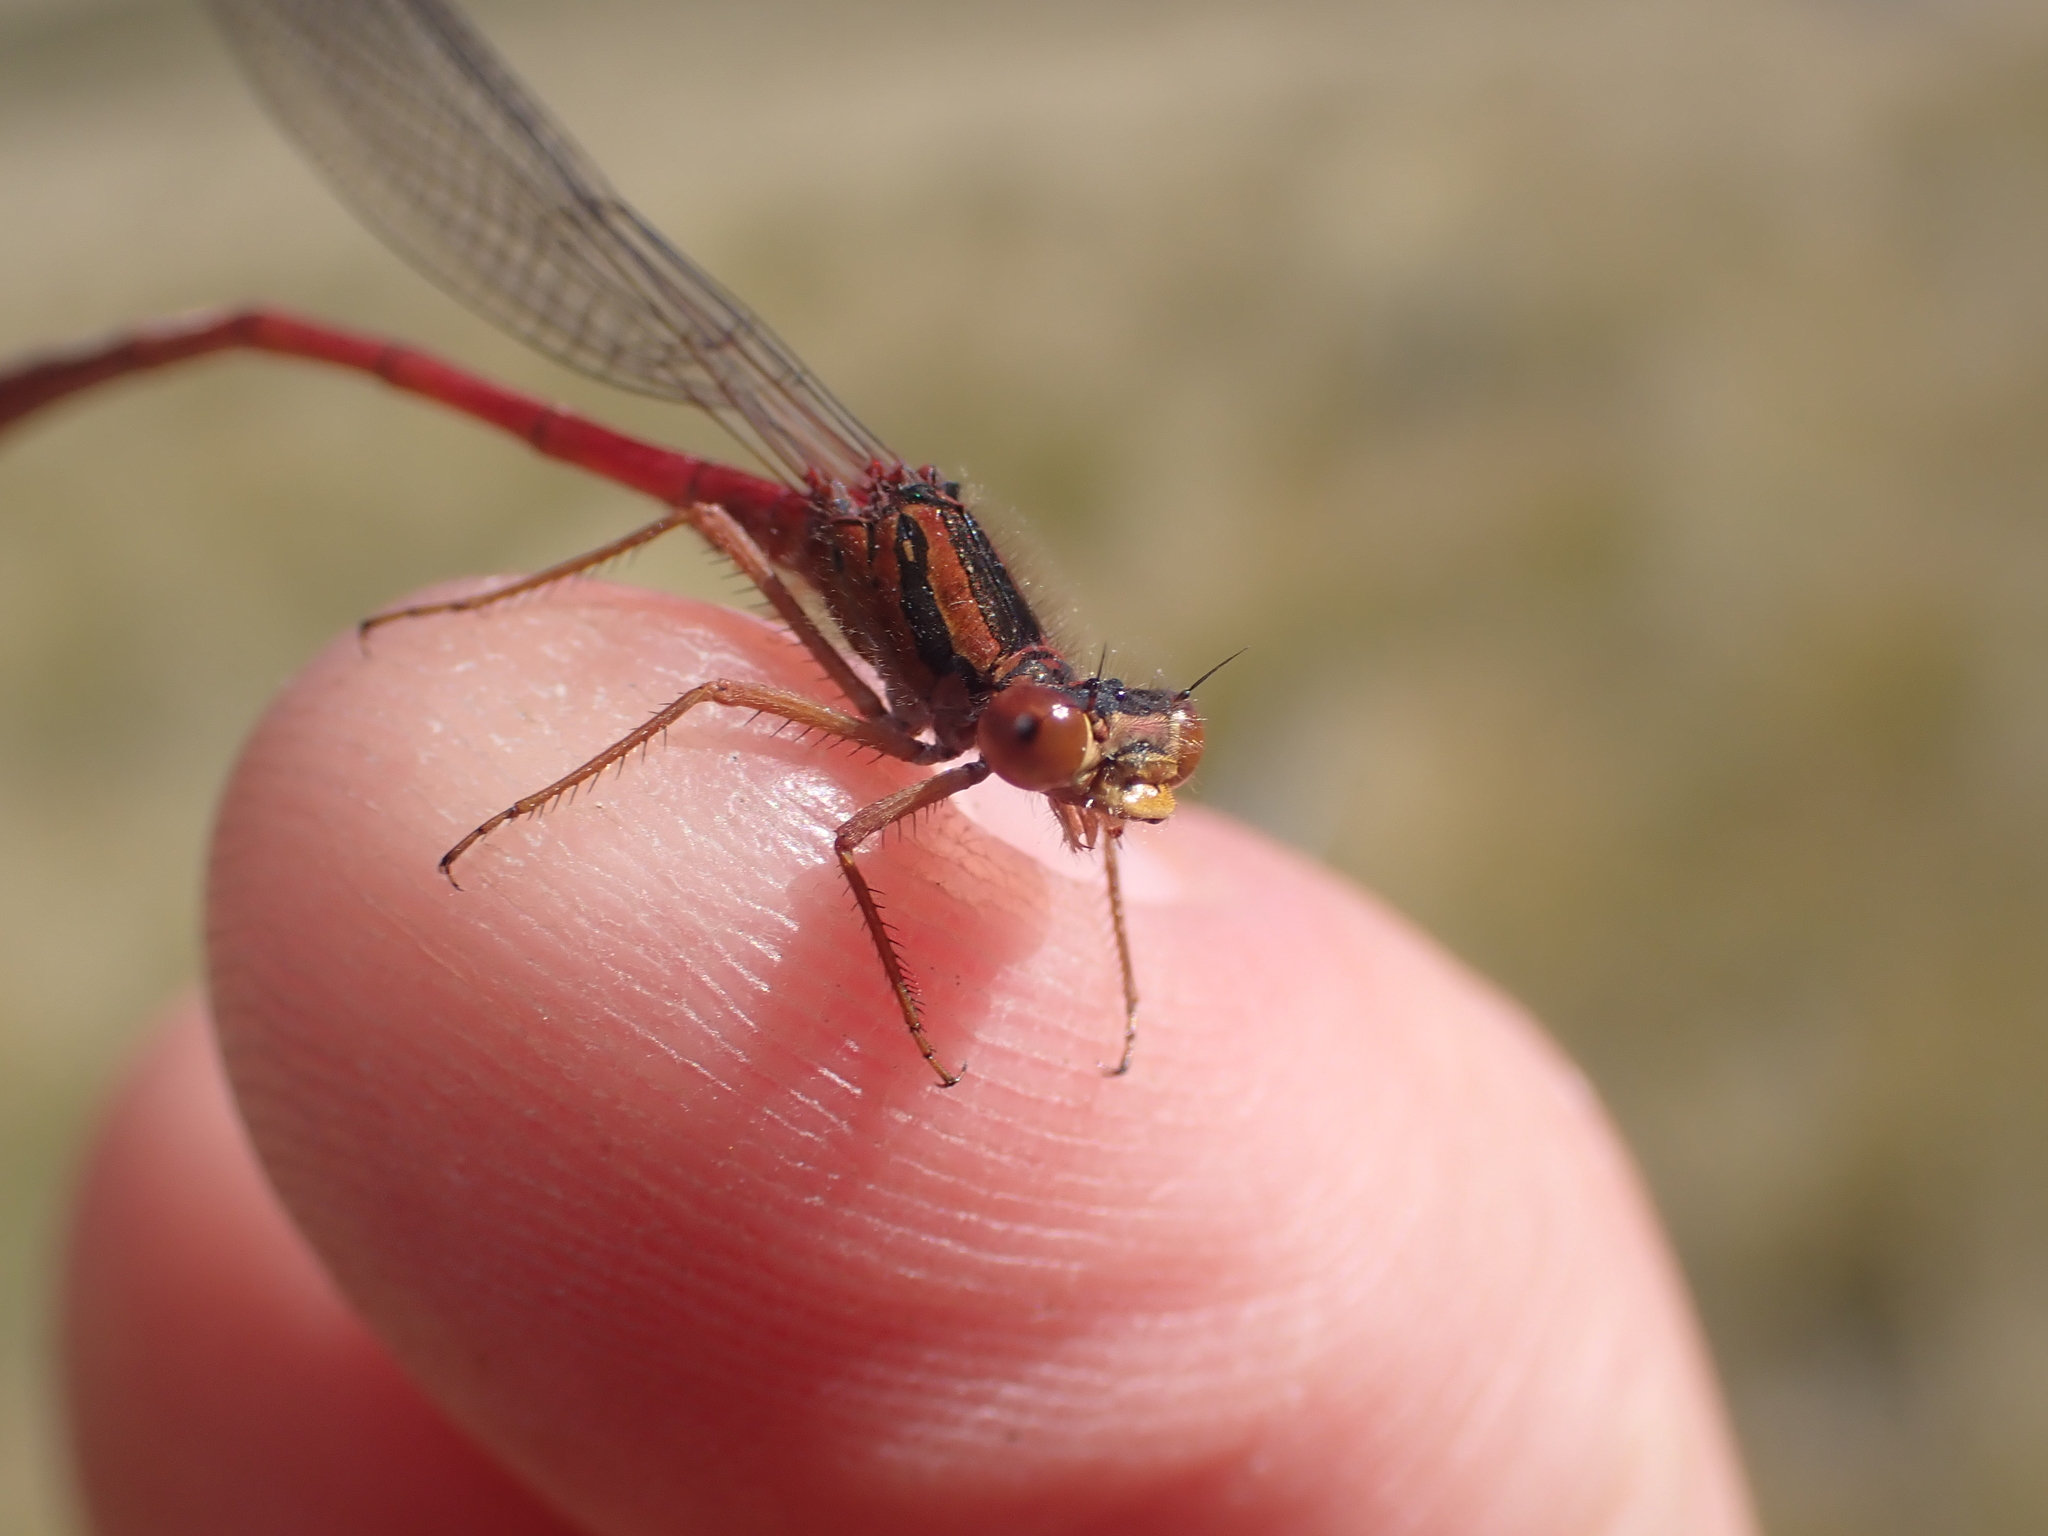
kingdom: Animalia
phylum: Arthropoda
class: Insecta
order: Odonata
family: Coenagrionidae
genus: Xanthocnemis
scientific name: Xanthocnemis zealandica
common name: Common redcoat damselfly
